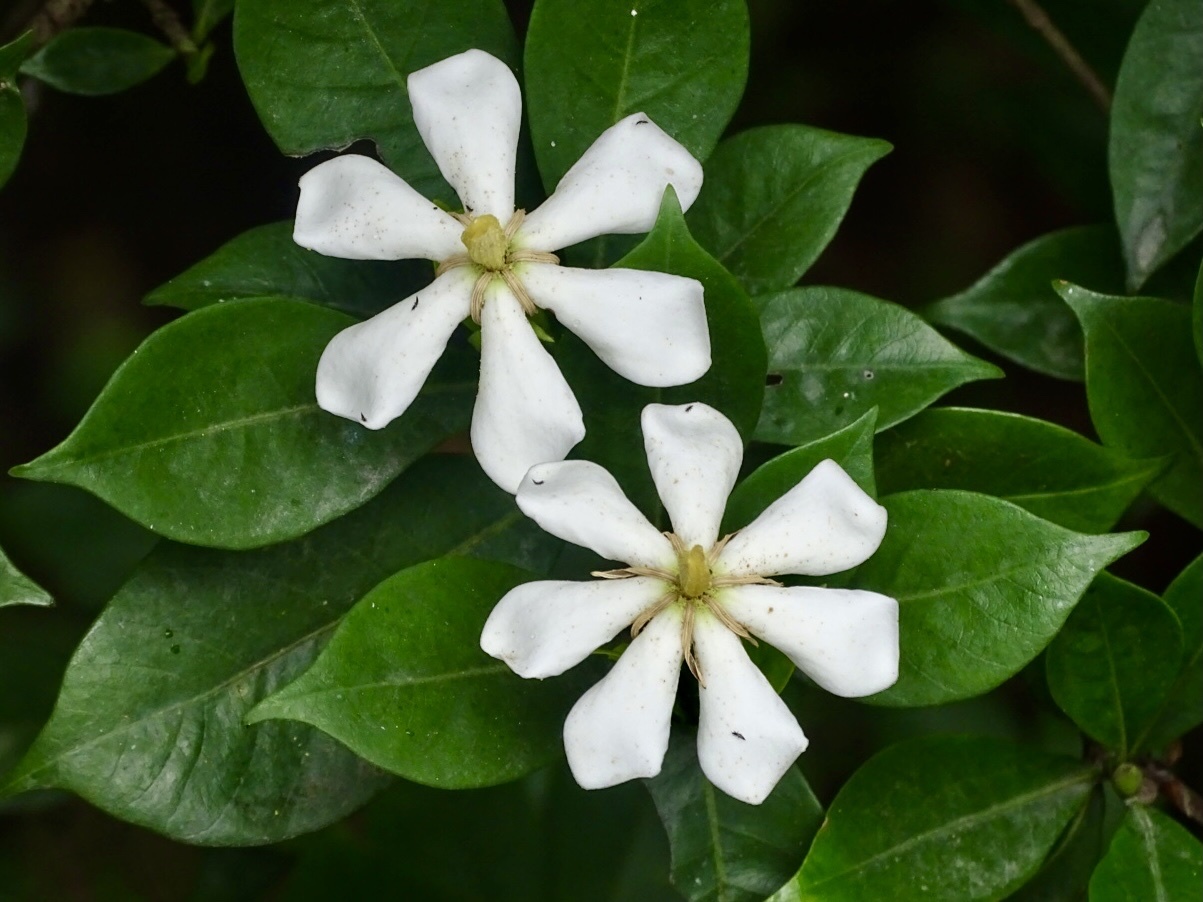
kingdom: Plantae
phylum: Tracheophyta
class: Magnoliopsida
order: Gentianales
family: Rubiaceae
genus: Gardenia
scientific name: Gardenia jasminoides
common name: Cape-jasmine
